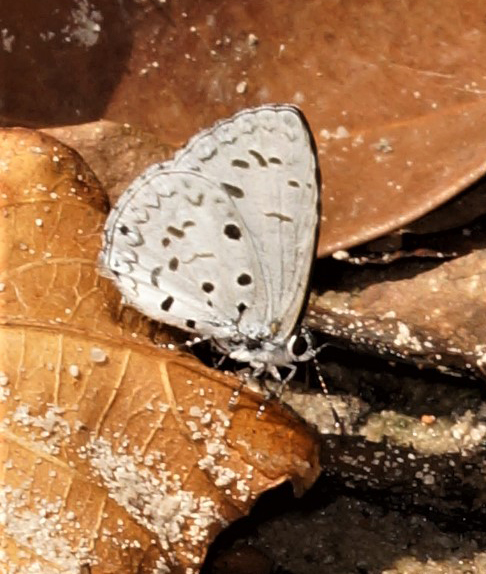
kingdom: Animalia
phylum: Arthropoda
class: Insecta
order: Lepidoptera
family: Lycaenidae
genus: Acytolepis
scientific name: Acytolepis puspa
